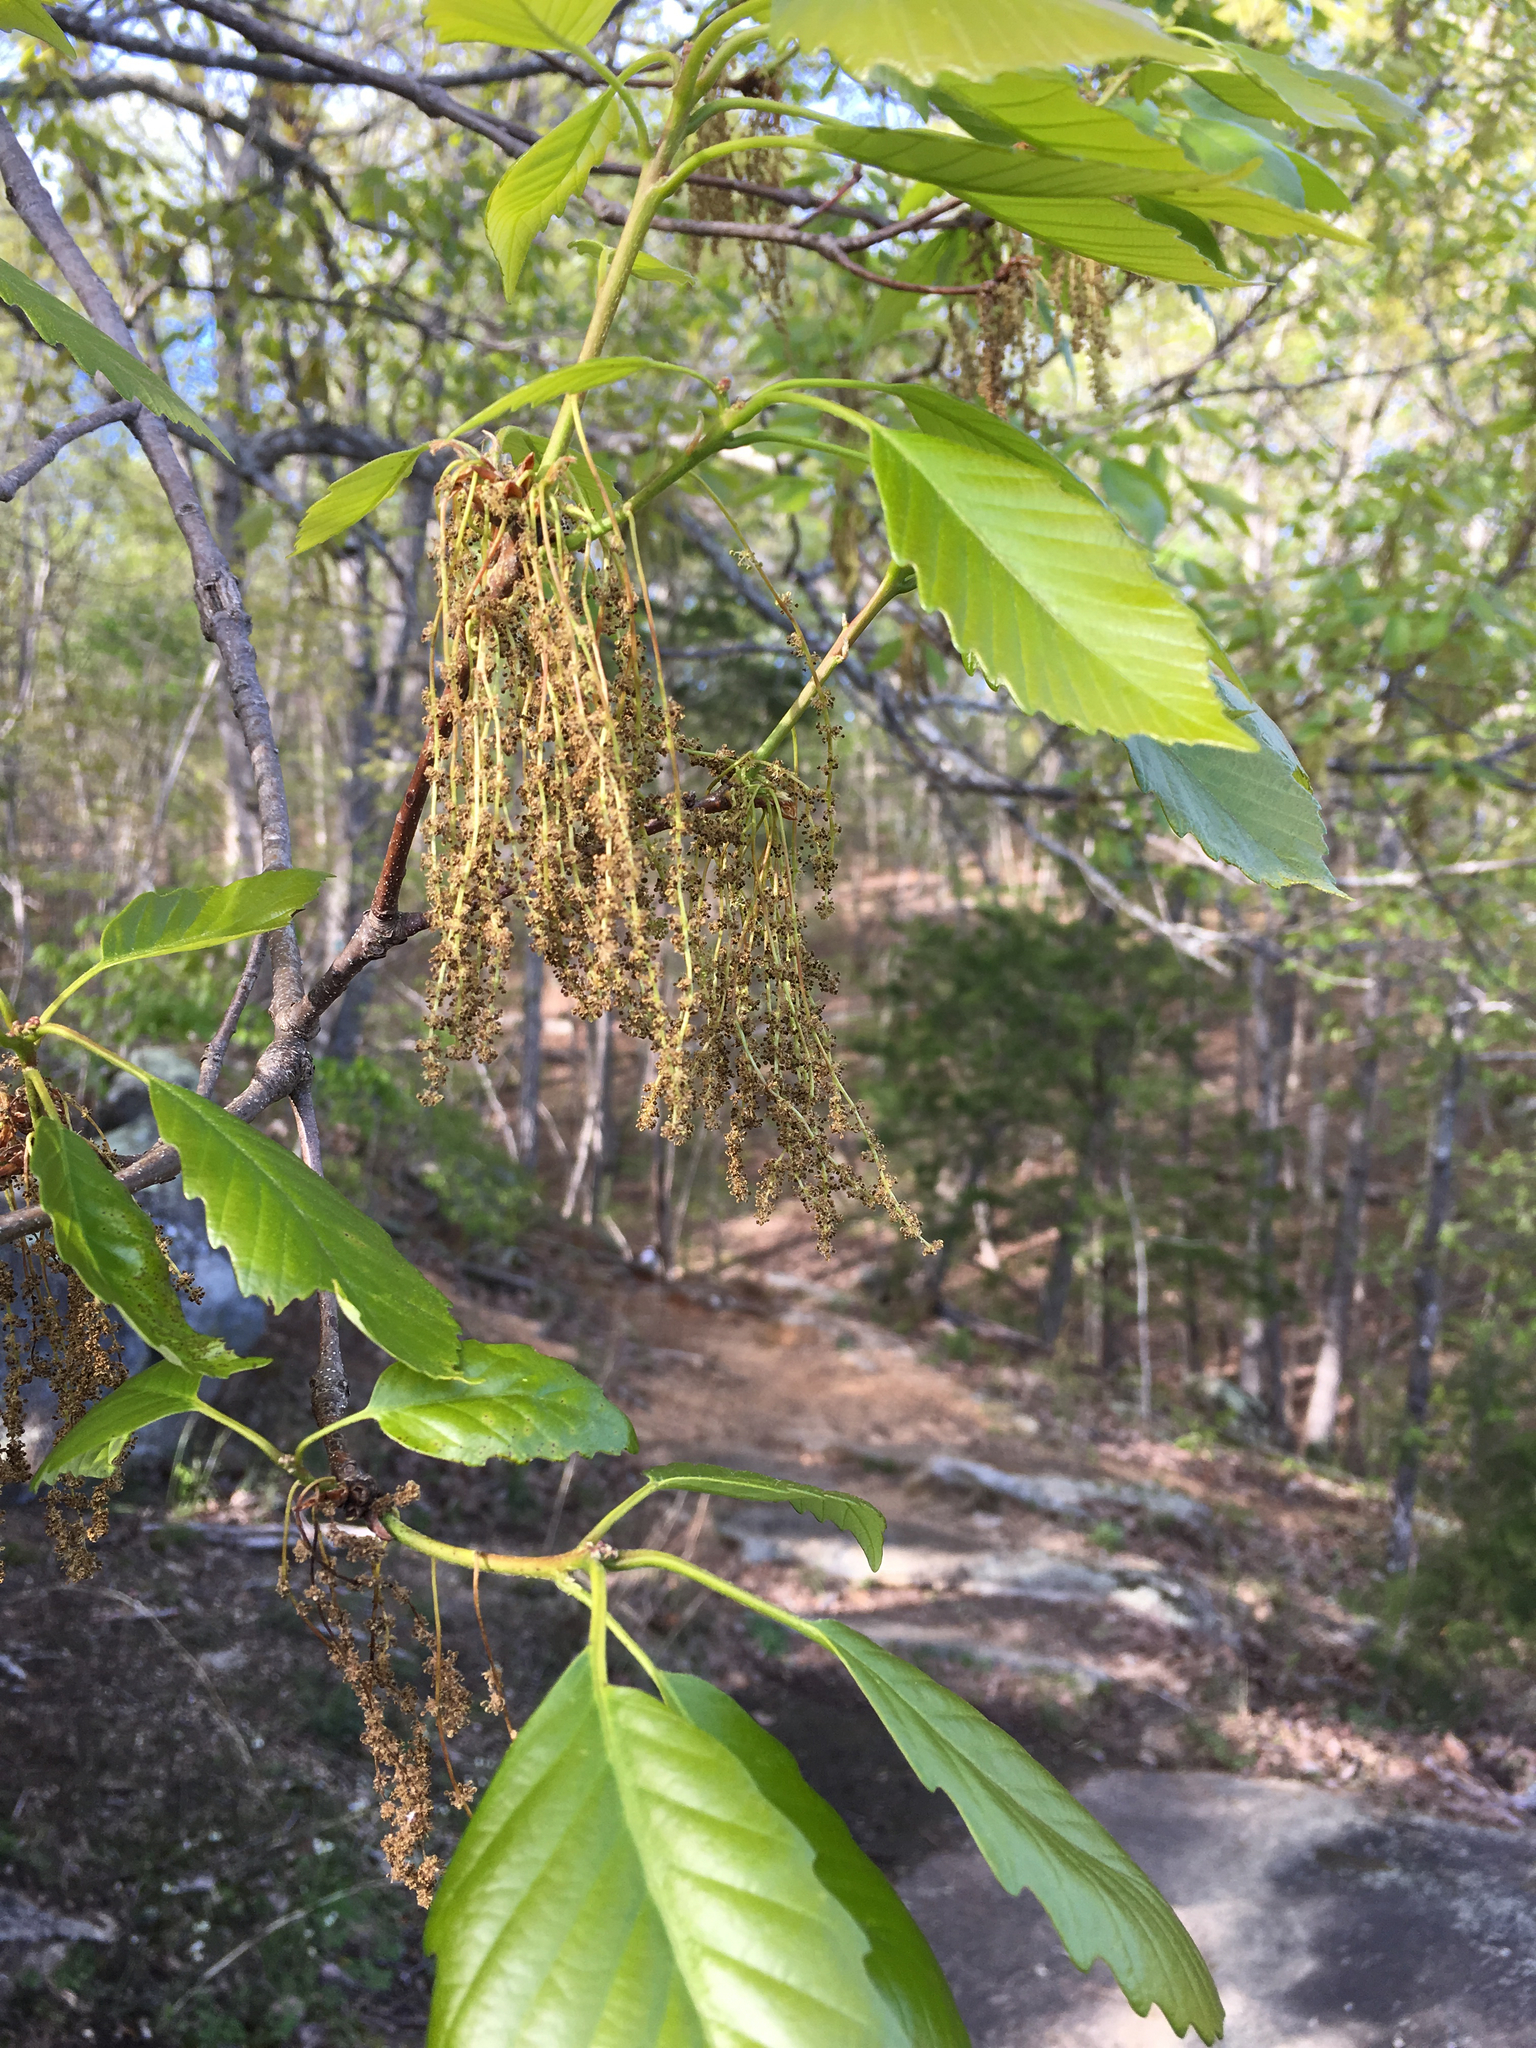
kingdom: Plantae
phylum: Tracheophyta
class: Magnoliopsida
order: Fagales
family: Fagaceae
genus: Quercus
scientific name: Quercus montana
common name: Chestnut oak
